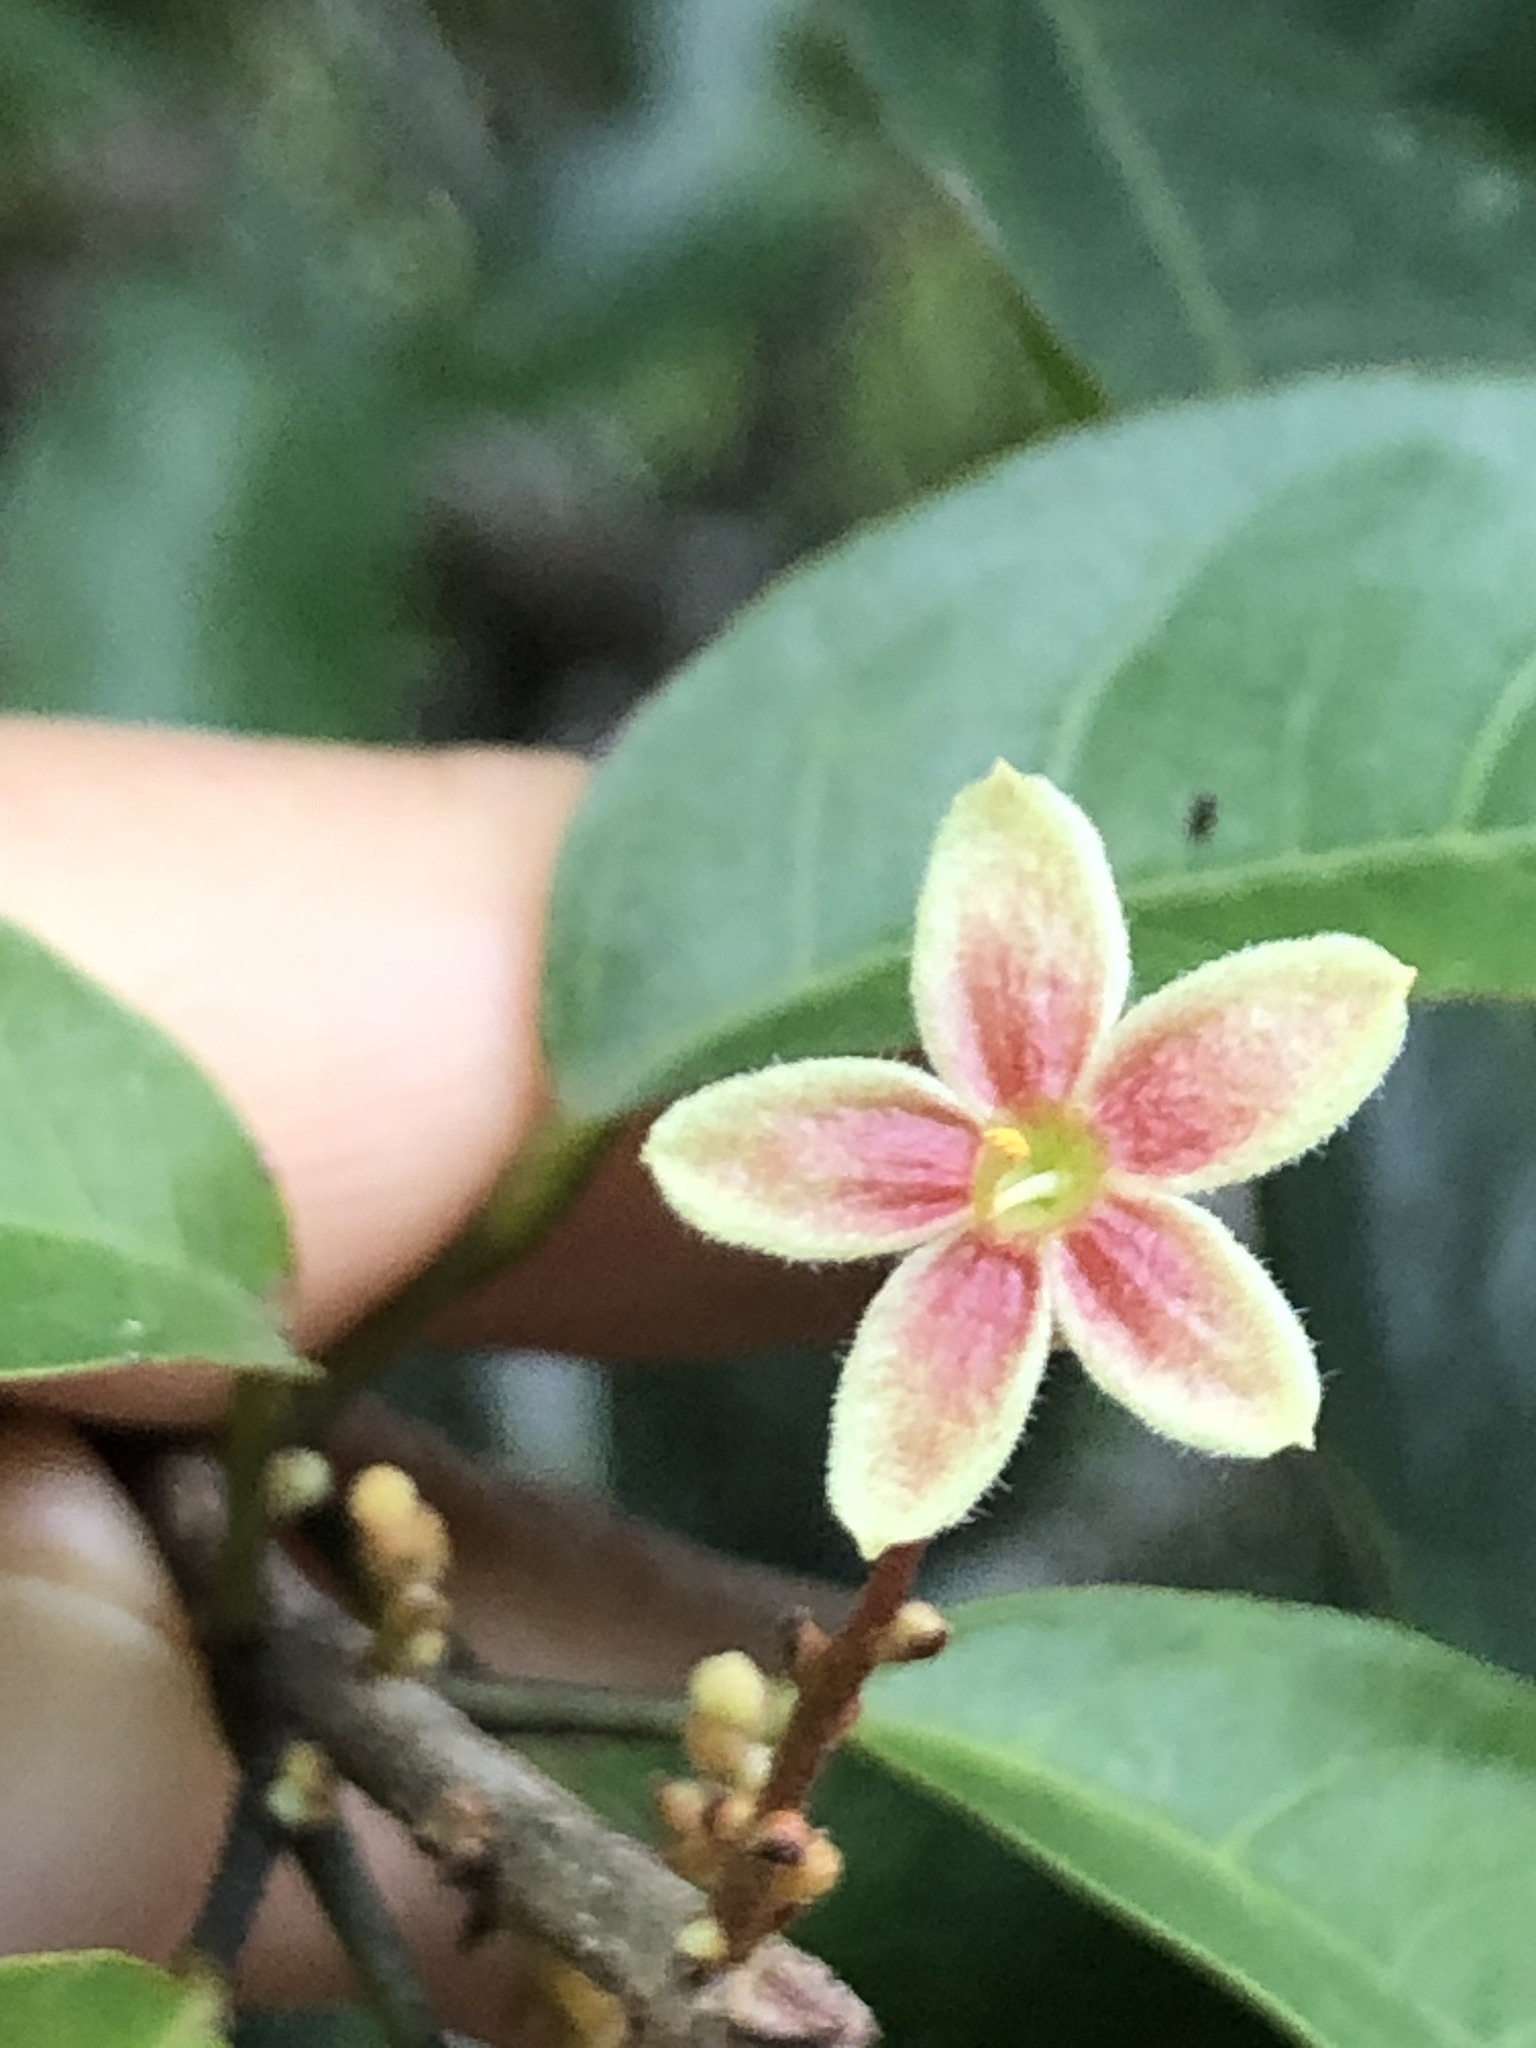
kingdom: Plantae
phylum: Tracheophyta
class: Magnoliopsida
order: Malvales
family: Malvaceae
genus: Sterculia
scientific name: Sterculia lanceolata
